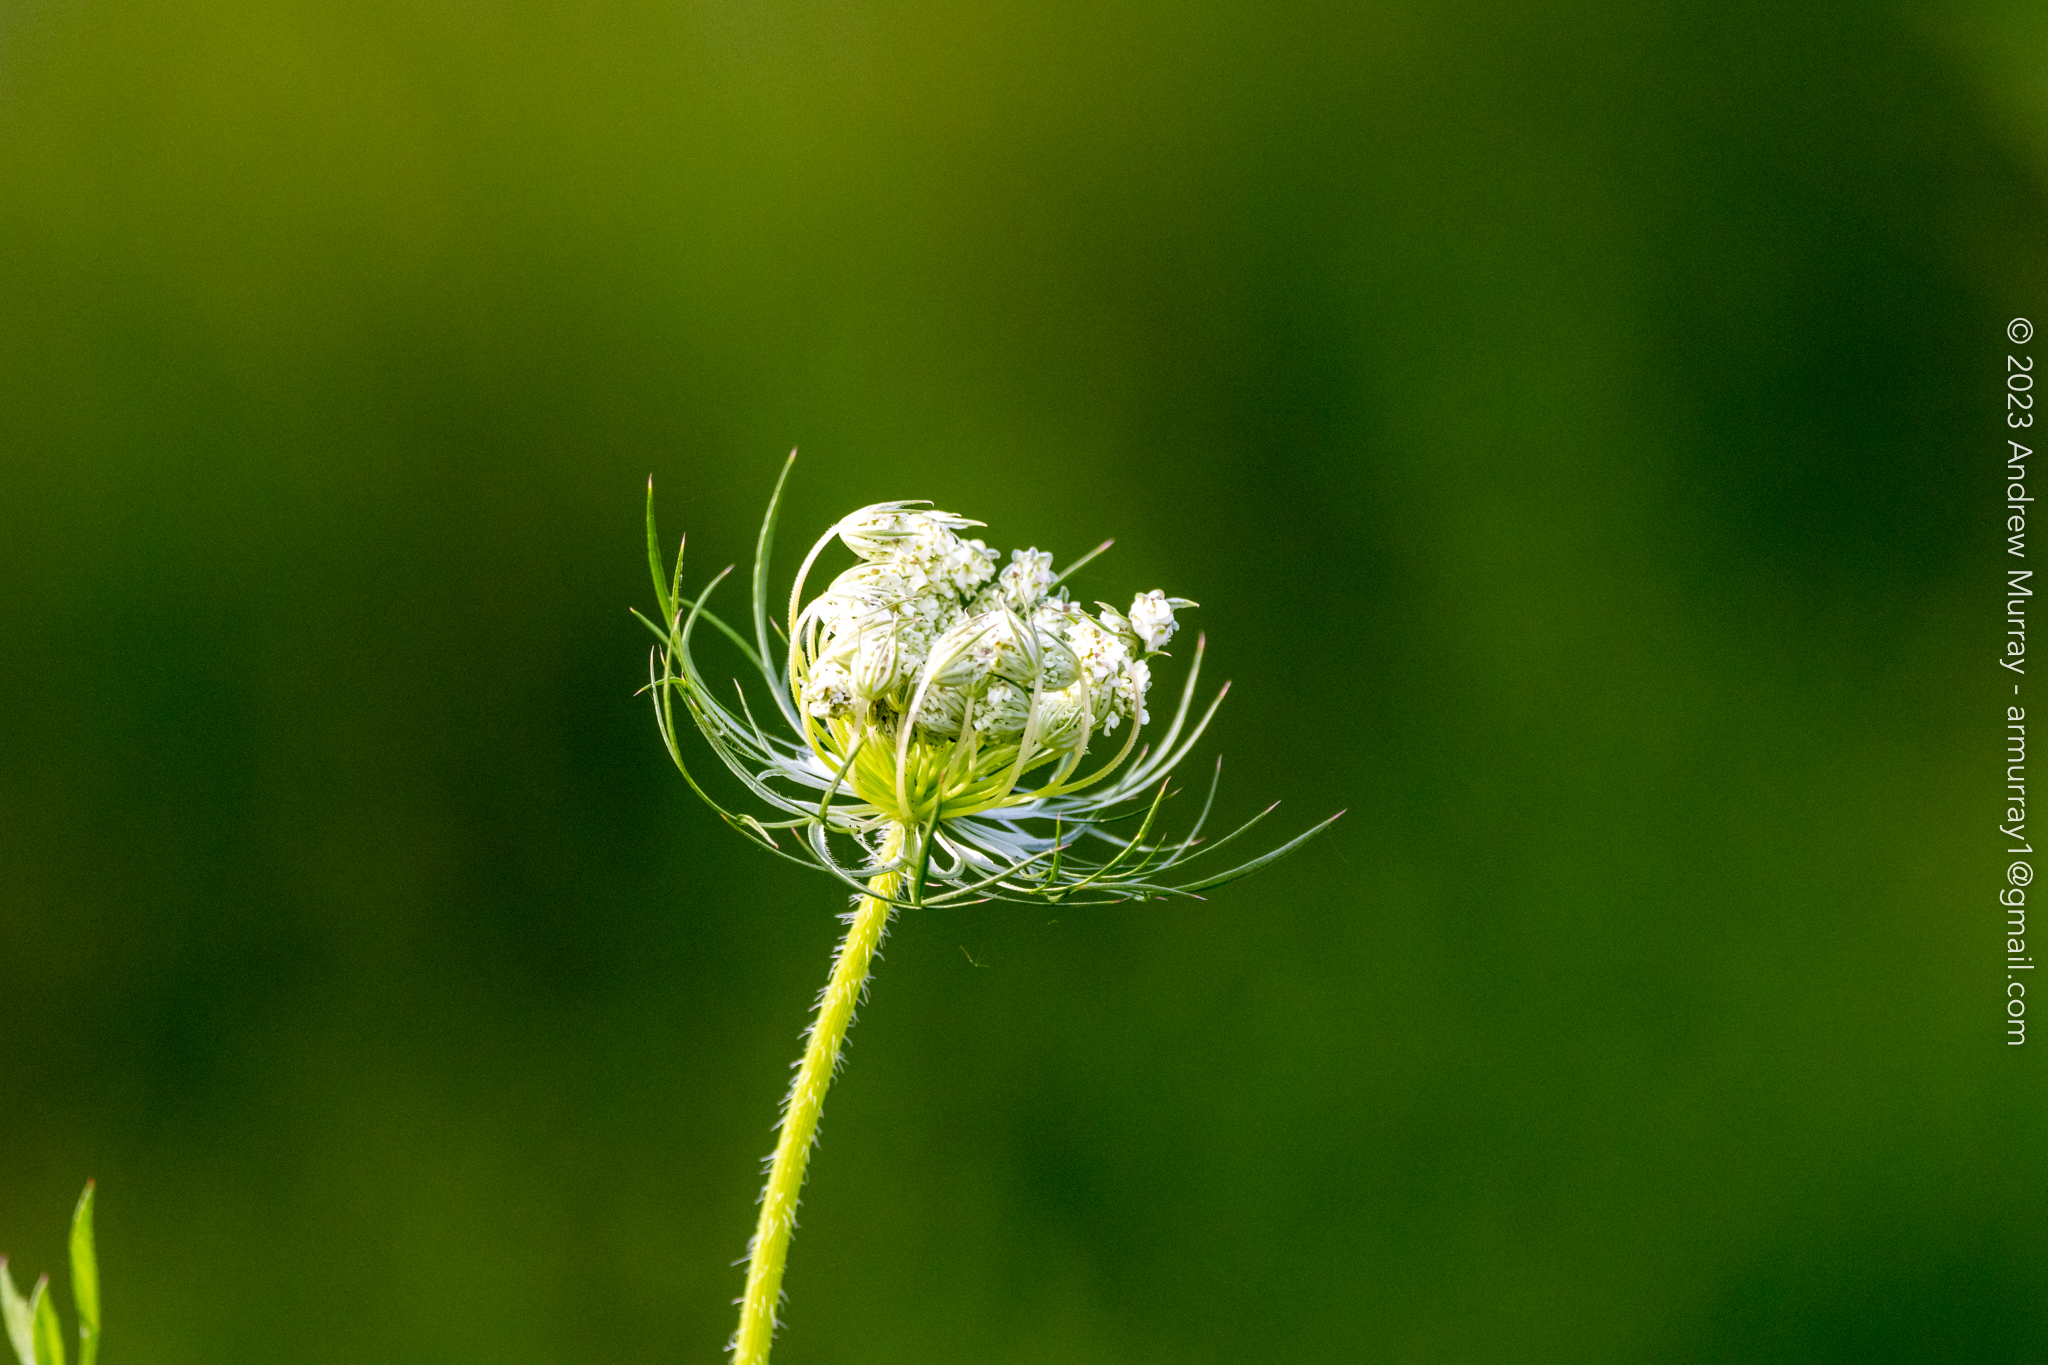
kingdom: Plantae
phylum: Tracheophyta
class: Magnoliopsida
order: Apiales
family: Apiaceae
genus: Daucus
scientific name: Daucus carota
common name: Wild carrot
